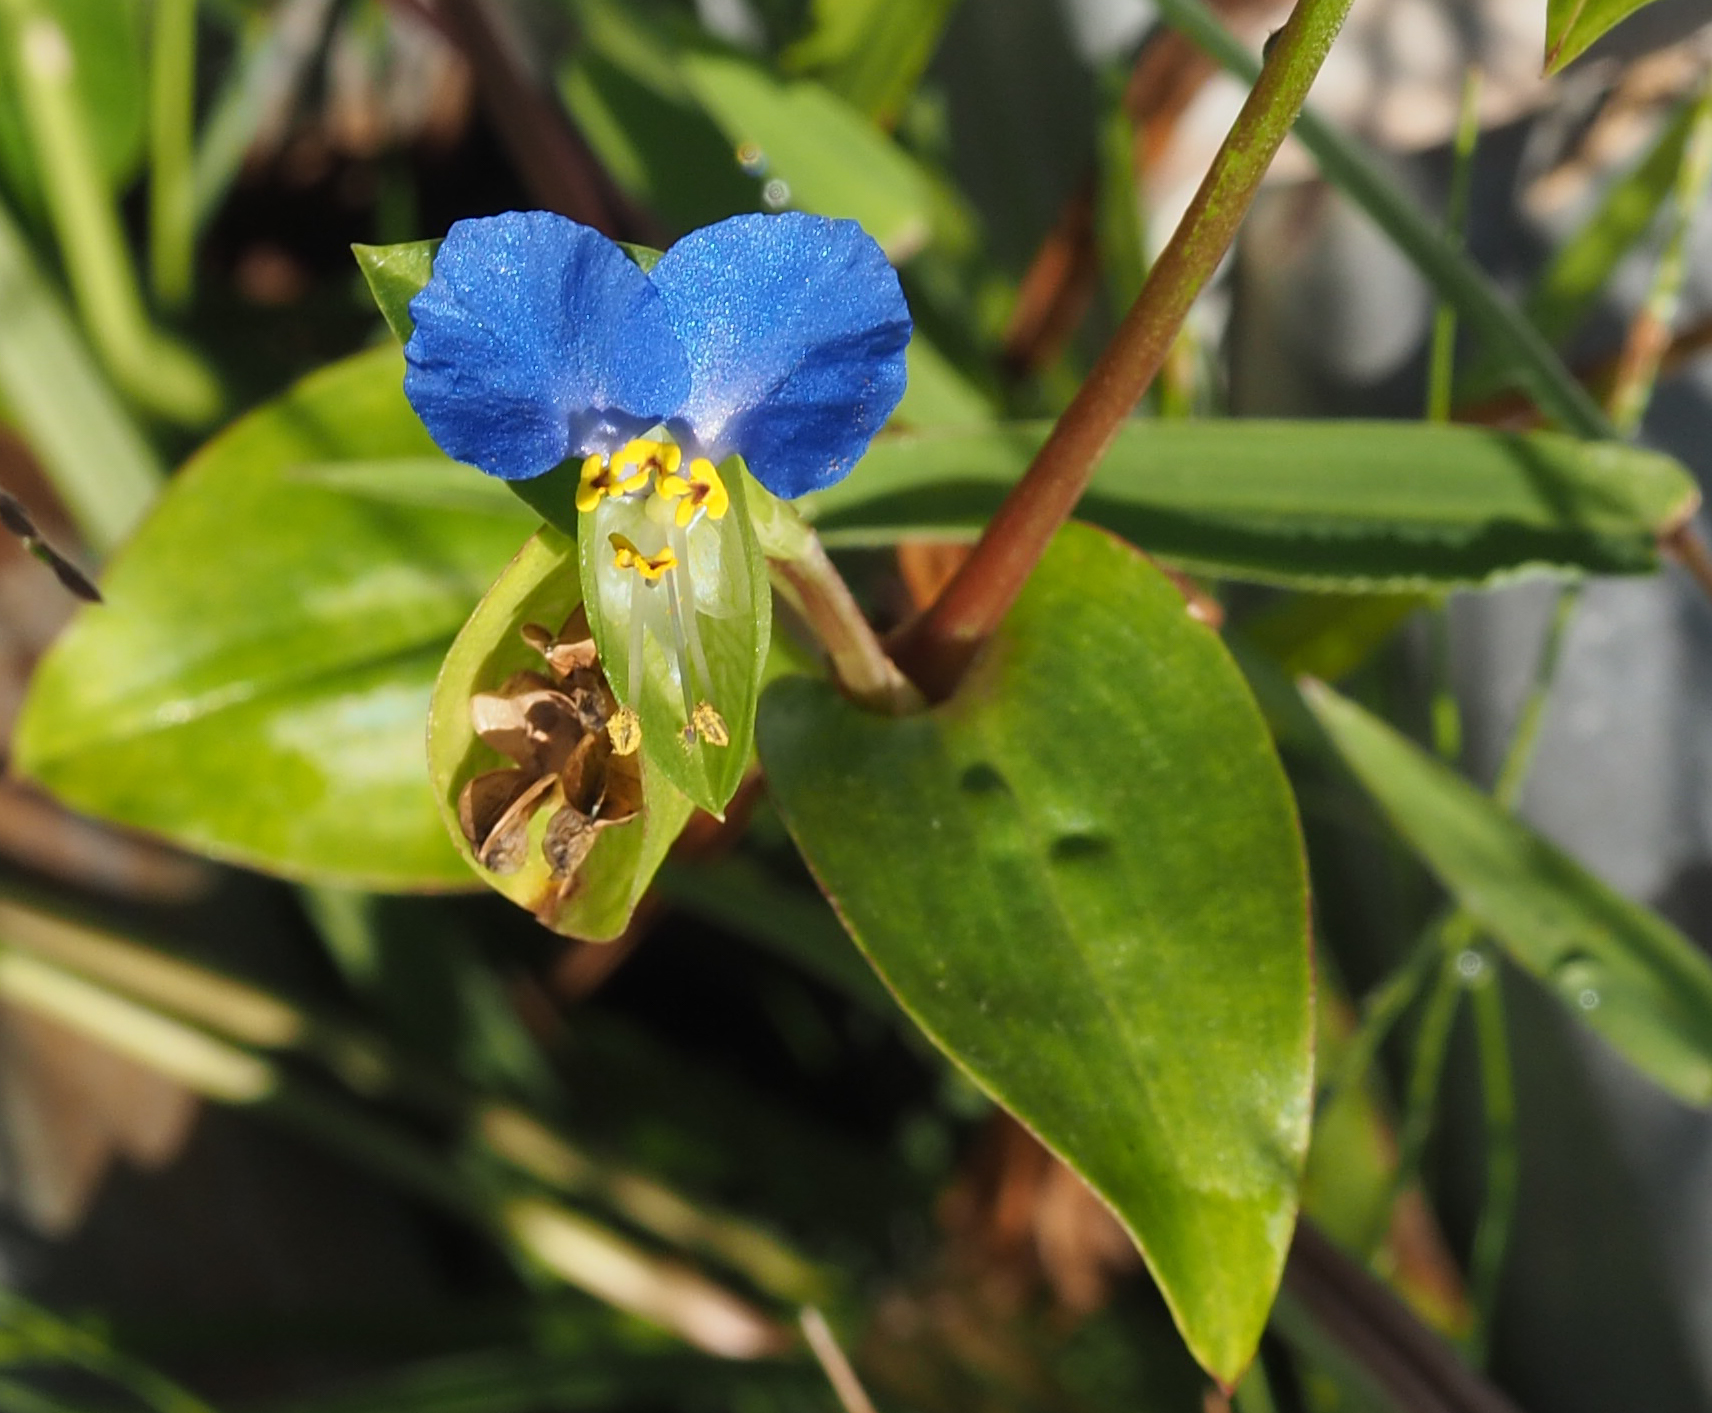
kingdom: Plantae
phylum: Tracheophyta
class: Liliopsida
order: Commelinales
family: Commelinaceae
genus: Commelina
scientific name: Commelina communis
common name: Asiatic dayflower
